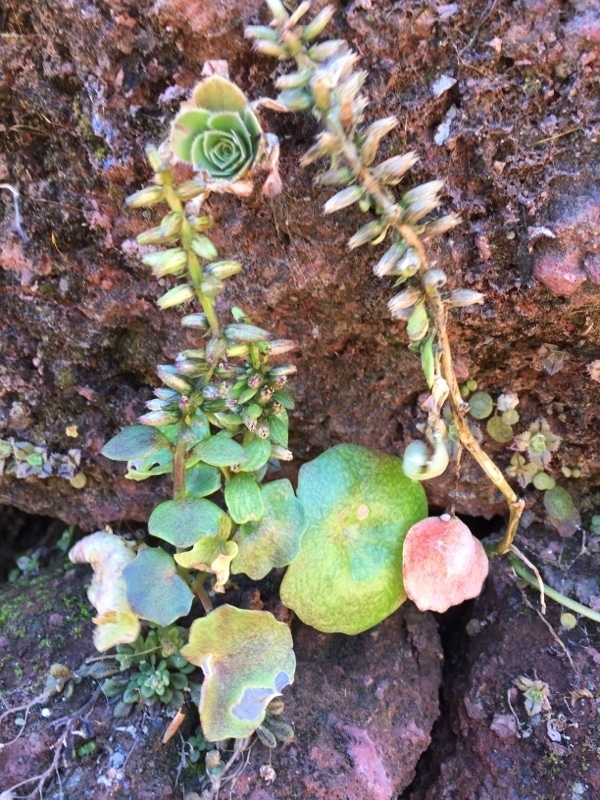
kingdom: Plantae
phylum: Tracheophyta
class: Magnoliopsida
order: Saxifragales
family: Crassulaceae
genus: Umbilicus
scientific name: Umbilicus horizontalis
